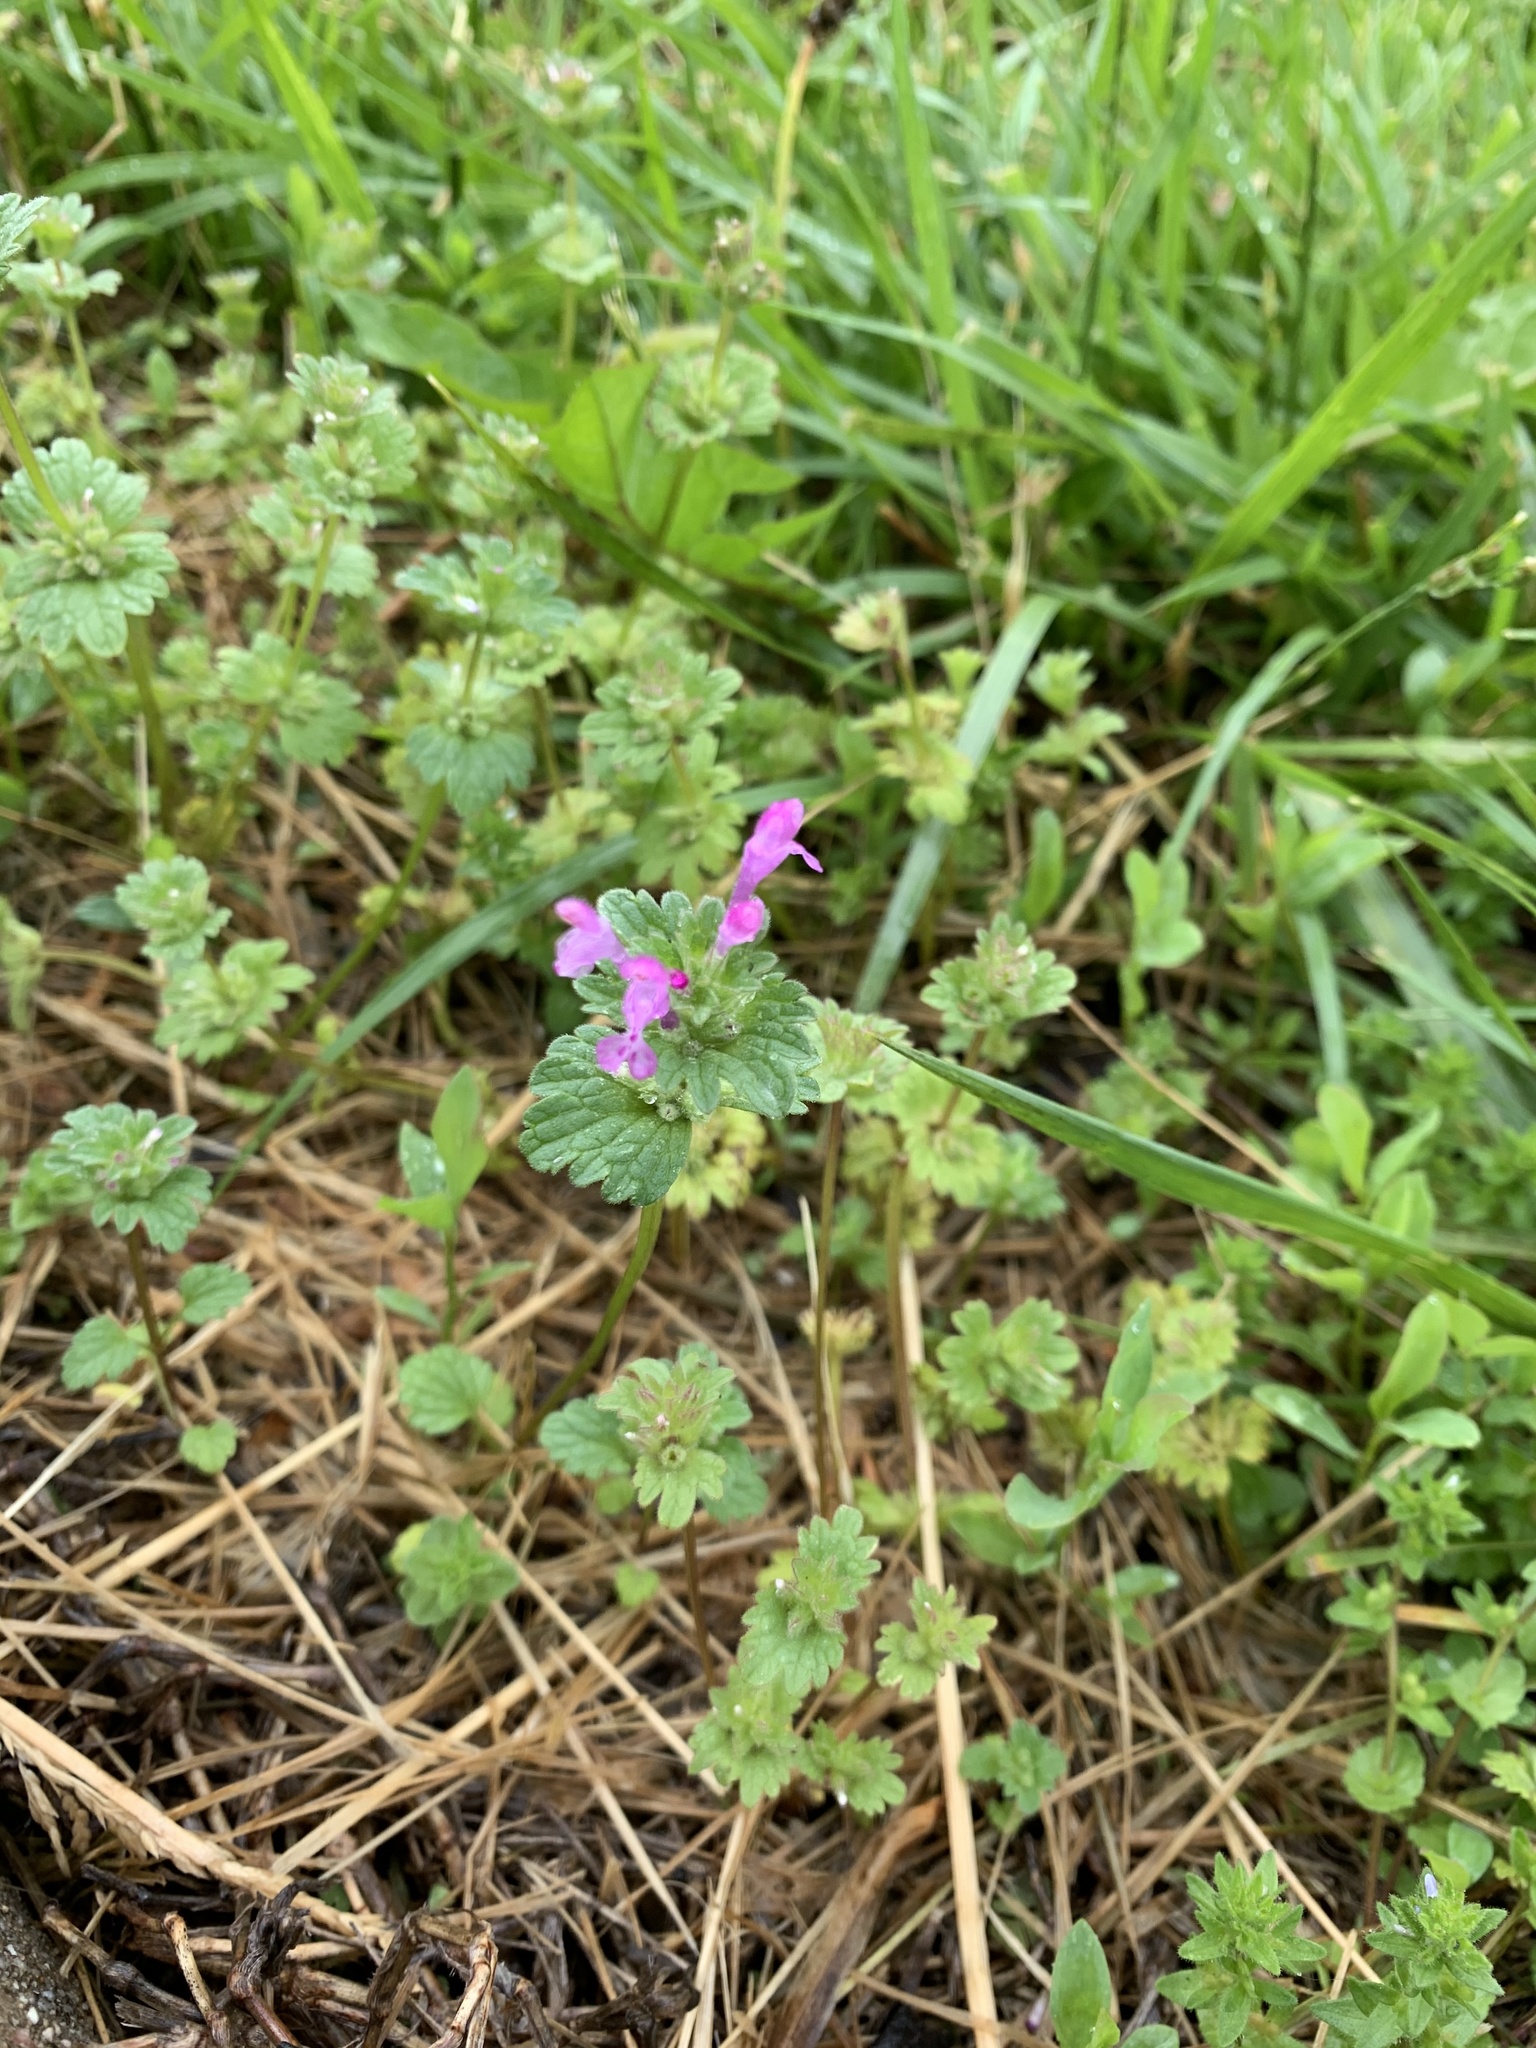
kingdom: Plantae
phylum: Tracheophyta
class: Magnoliopsida
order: Lamiales
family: Lamiaceae
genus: Lamium
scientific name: Lamium amplexicaule
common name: Henbit dead-nettle
